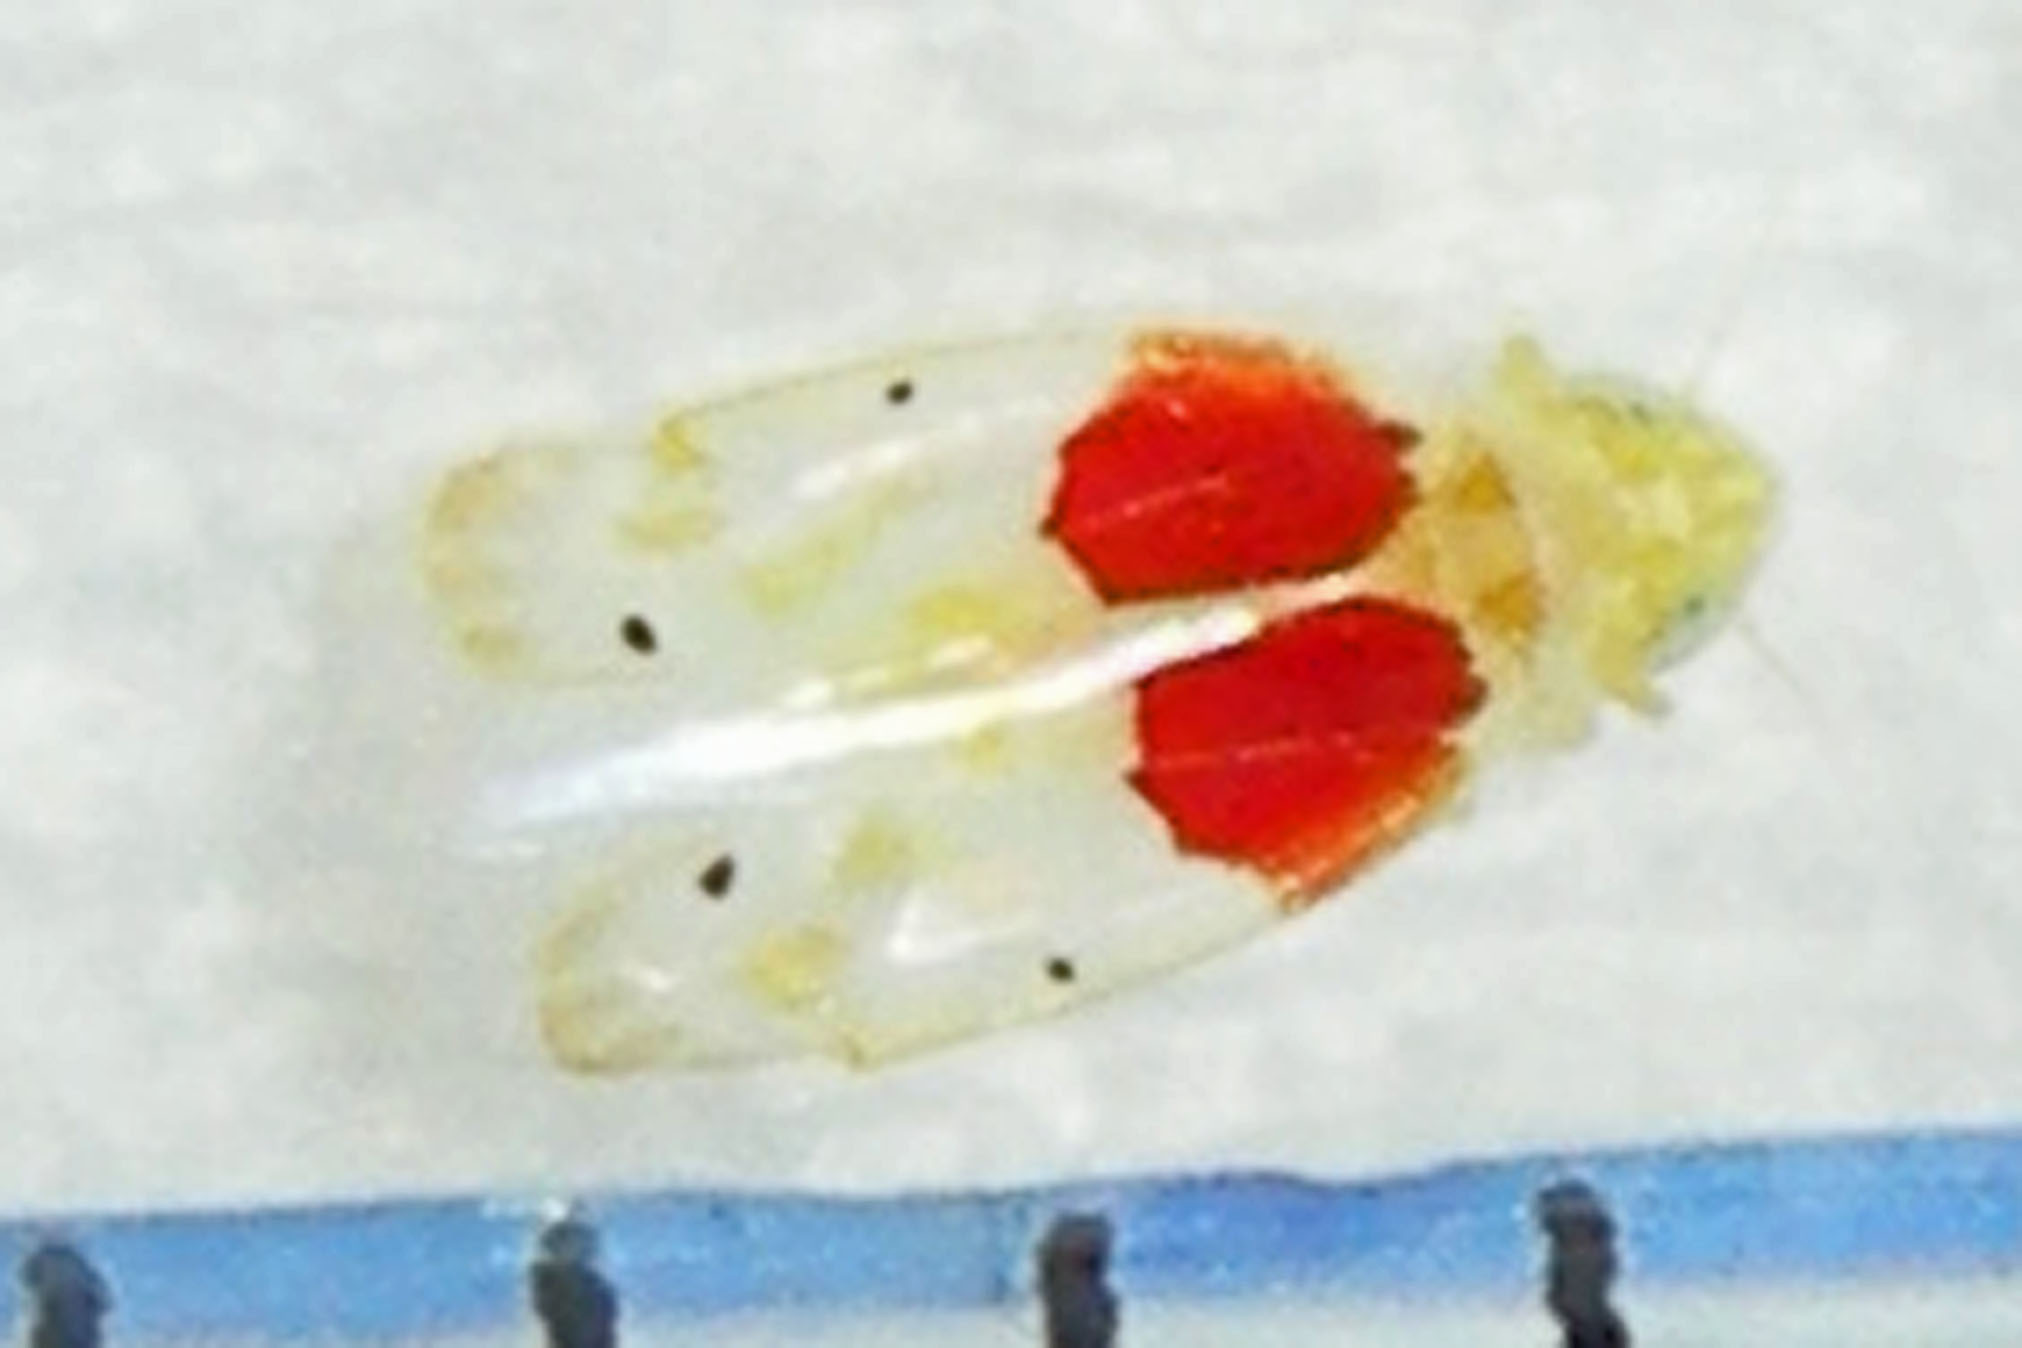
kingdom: Animalia
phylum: Arthropoda
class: Insecta
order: Hemiptera
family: Cicadellidae
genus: Eratoneura
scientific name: Eratoneura osborni
